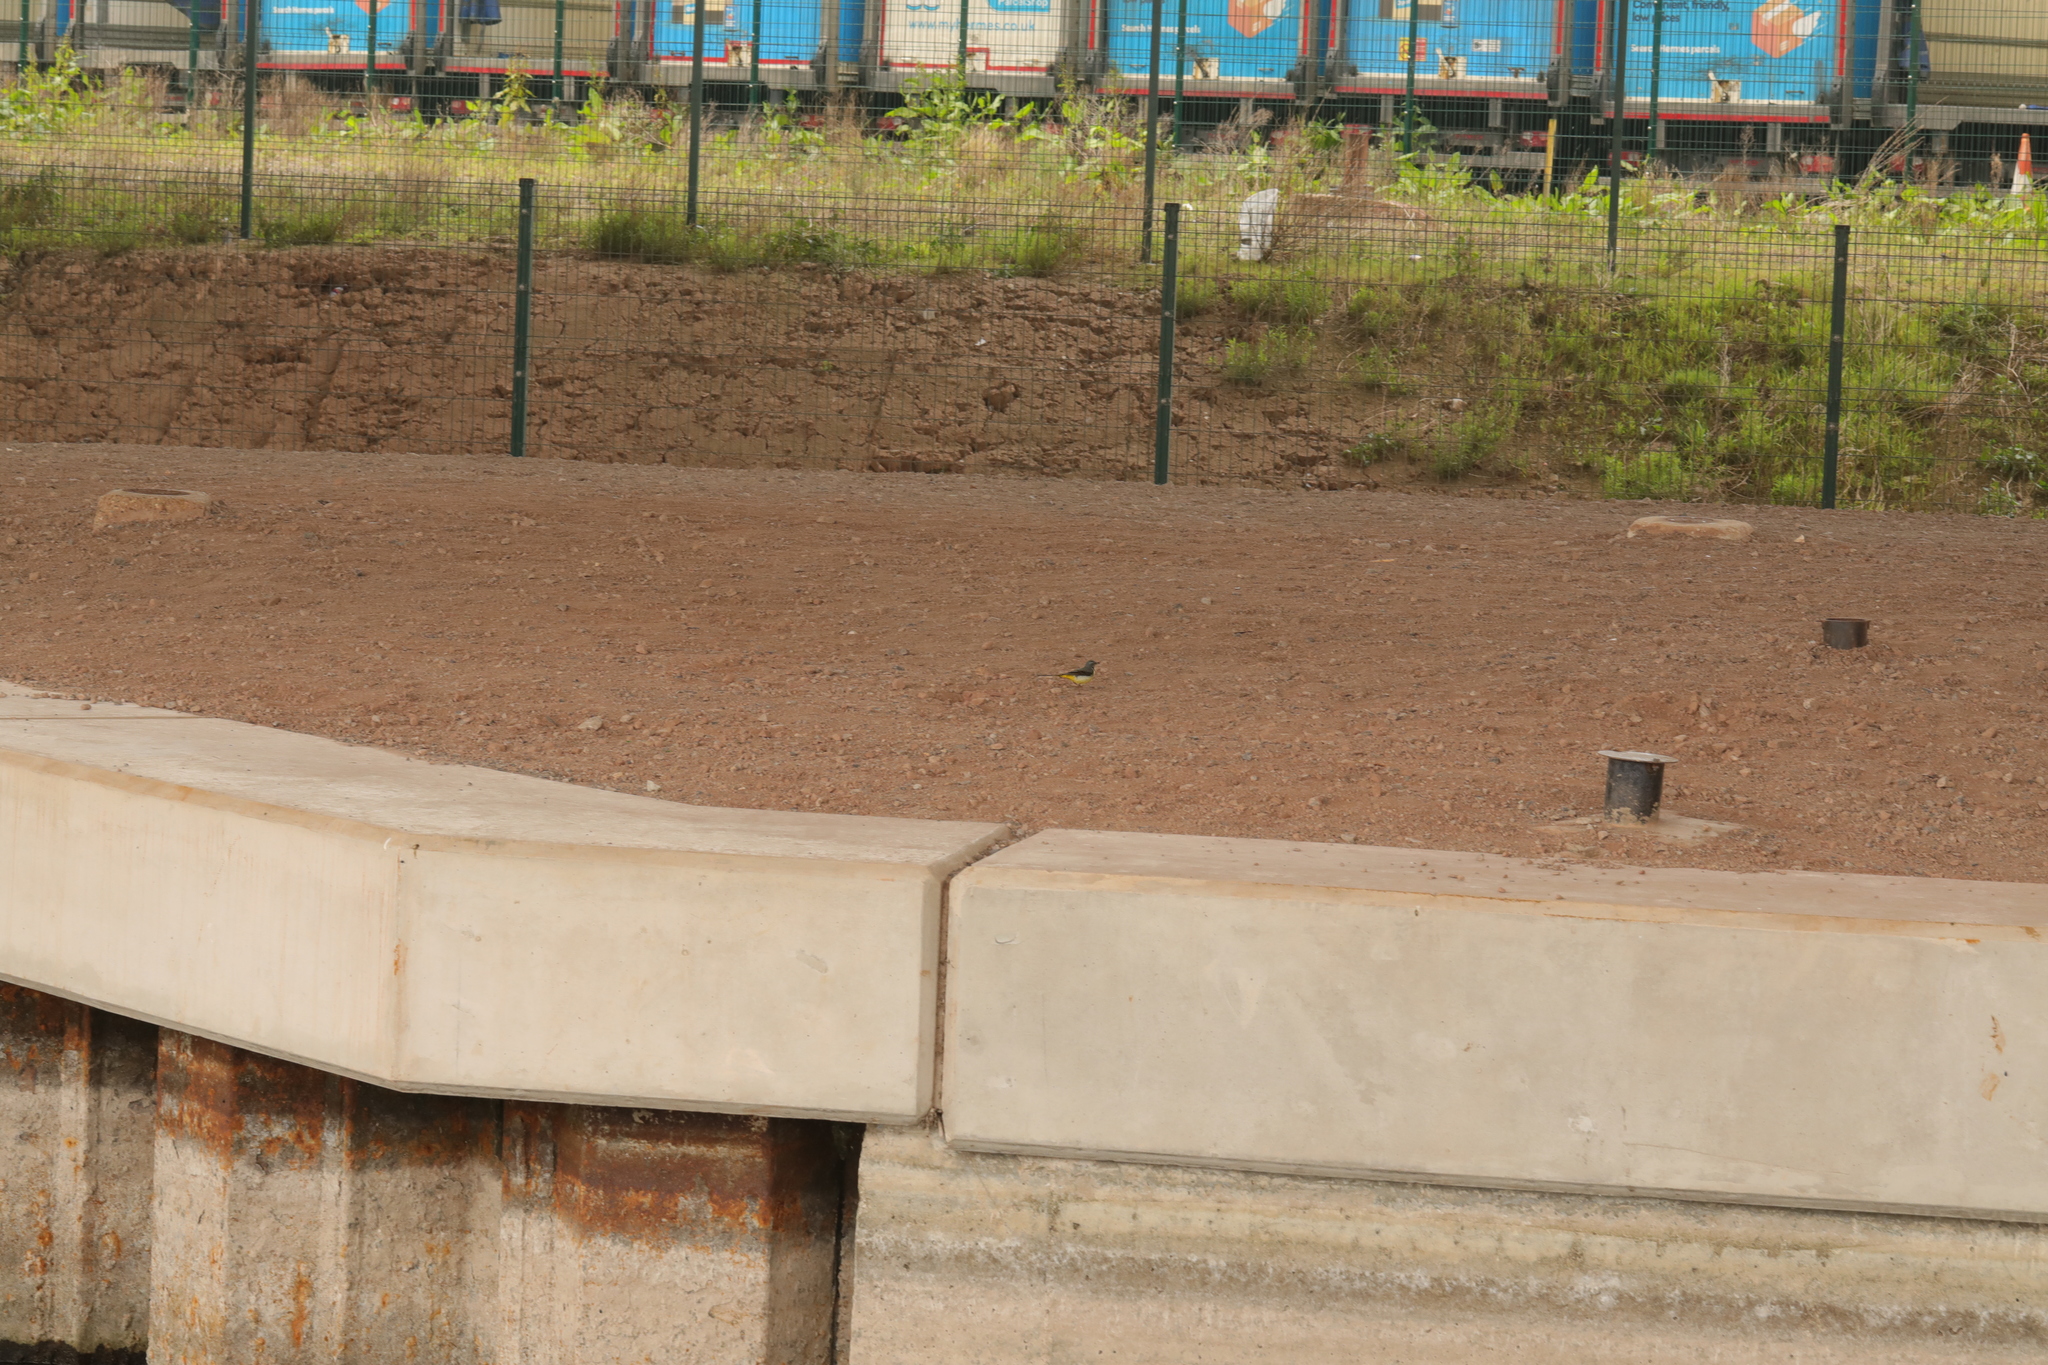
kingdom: Animalia
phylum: Chordata
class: Aves
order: Passeriformes
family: Motacillidae
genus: Motacilla
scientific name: Motacilla cinerea
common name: Grey wagtail
